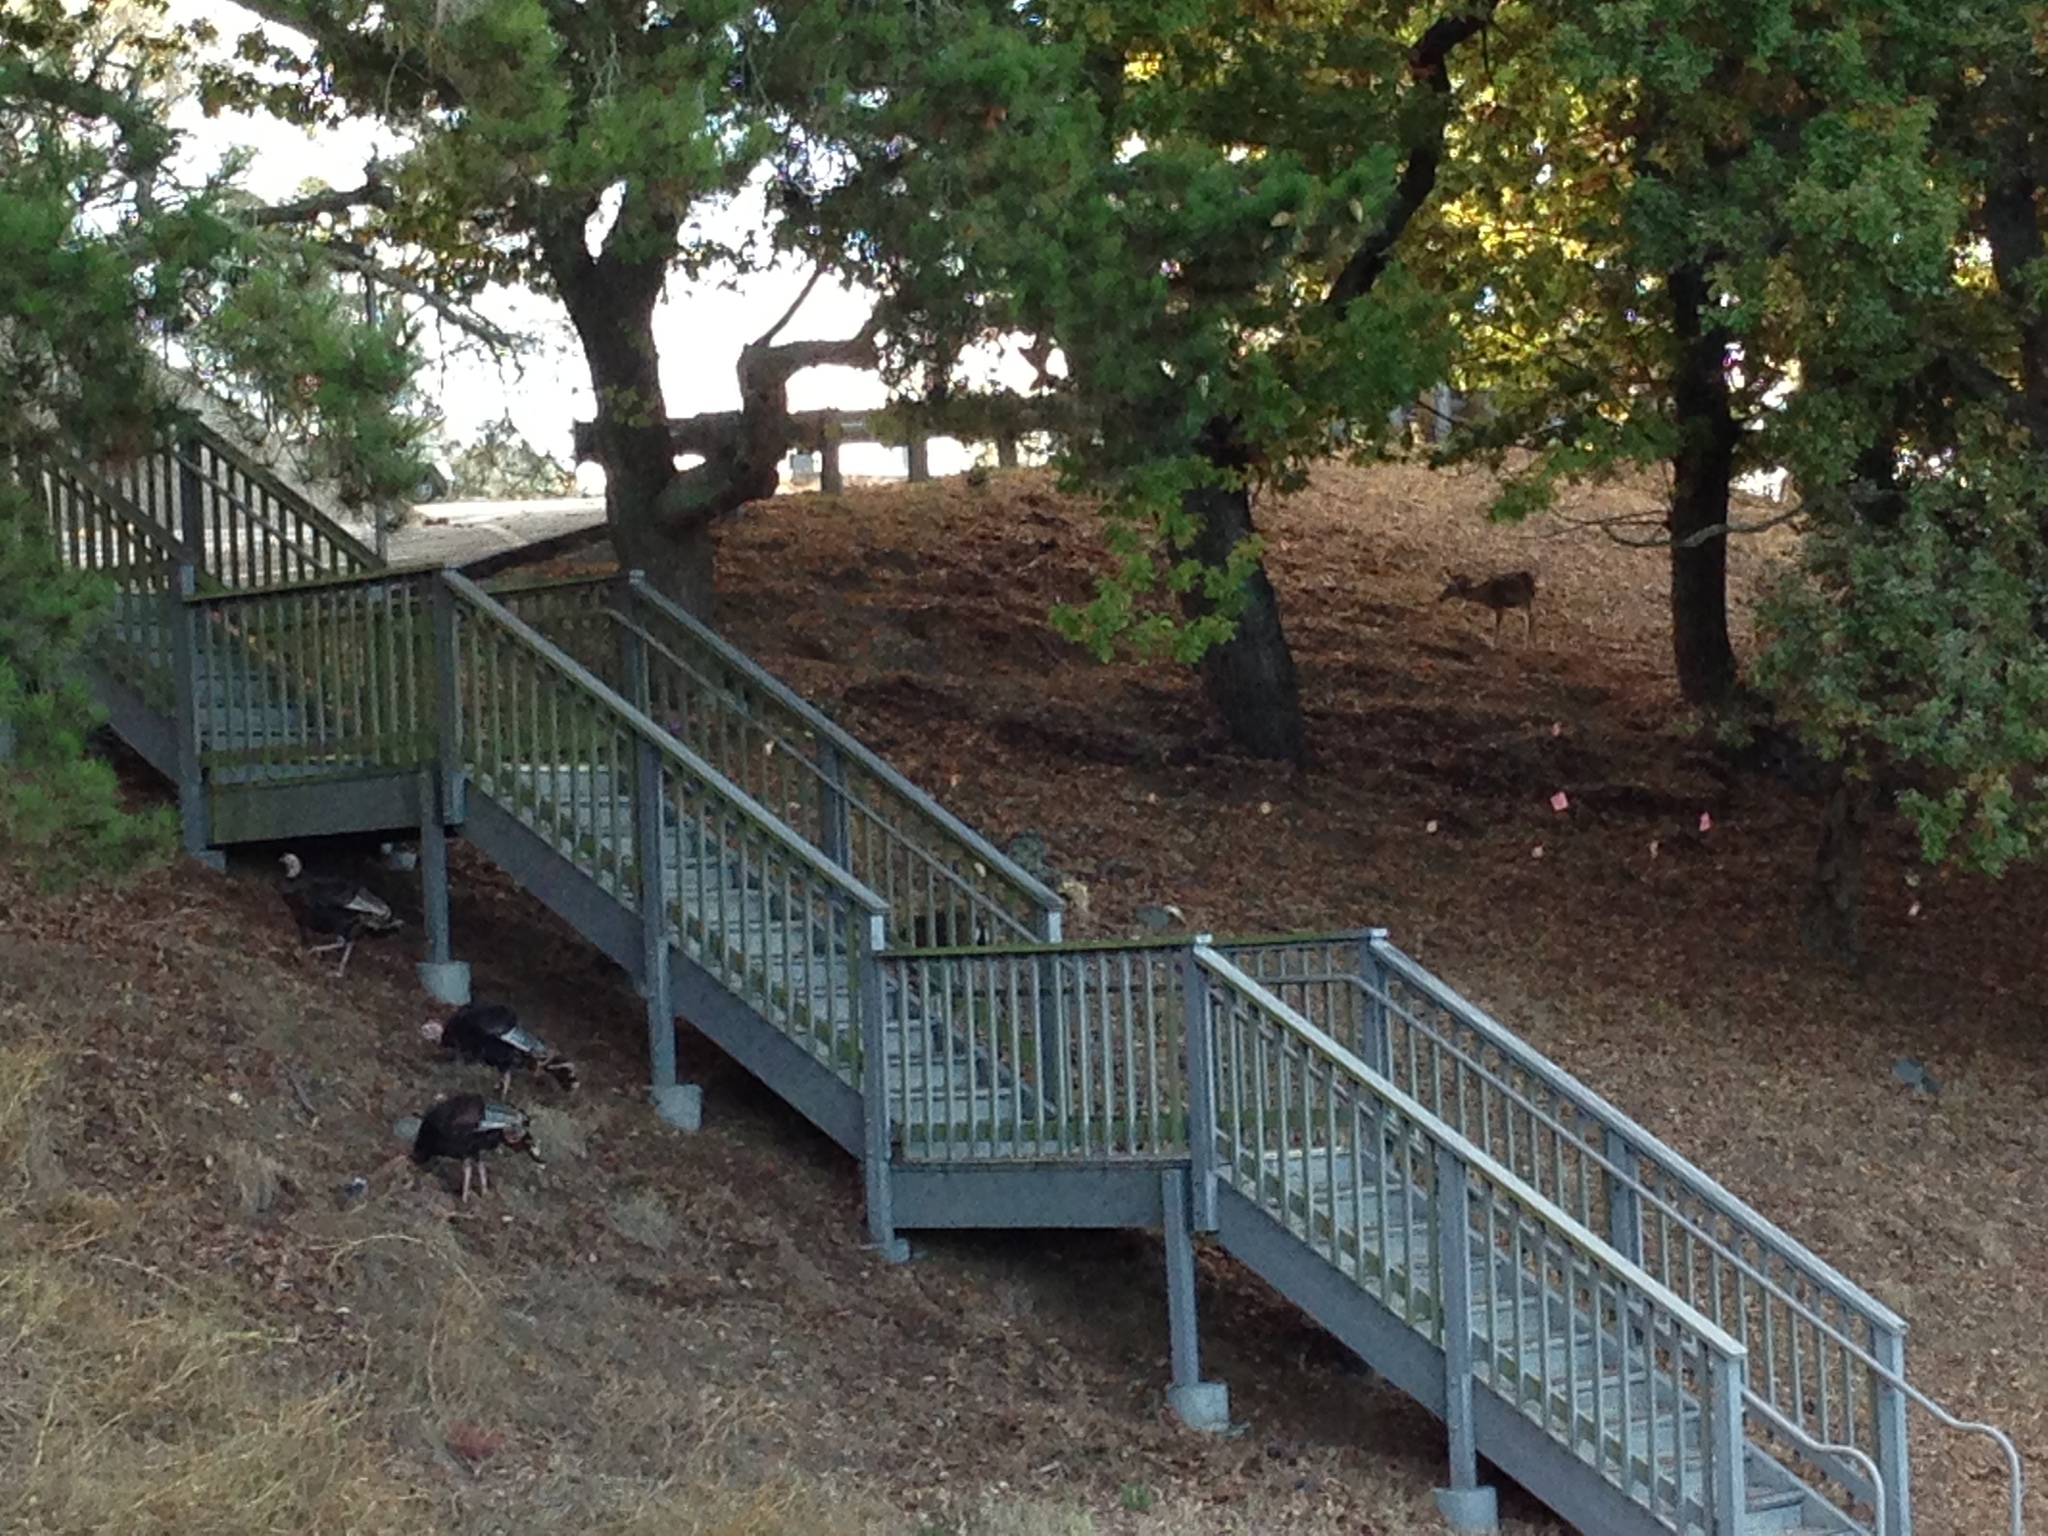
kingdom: Animalia
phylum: Chordata
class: Aves
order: Galliformes
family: Phasianidae
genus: Meleagris
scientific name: Meleagris gallopavo
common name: Wild turkey
